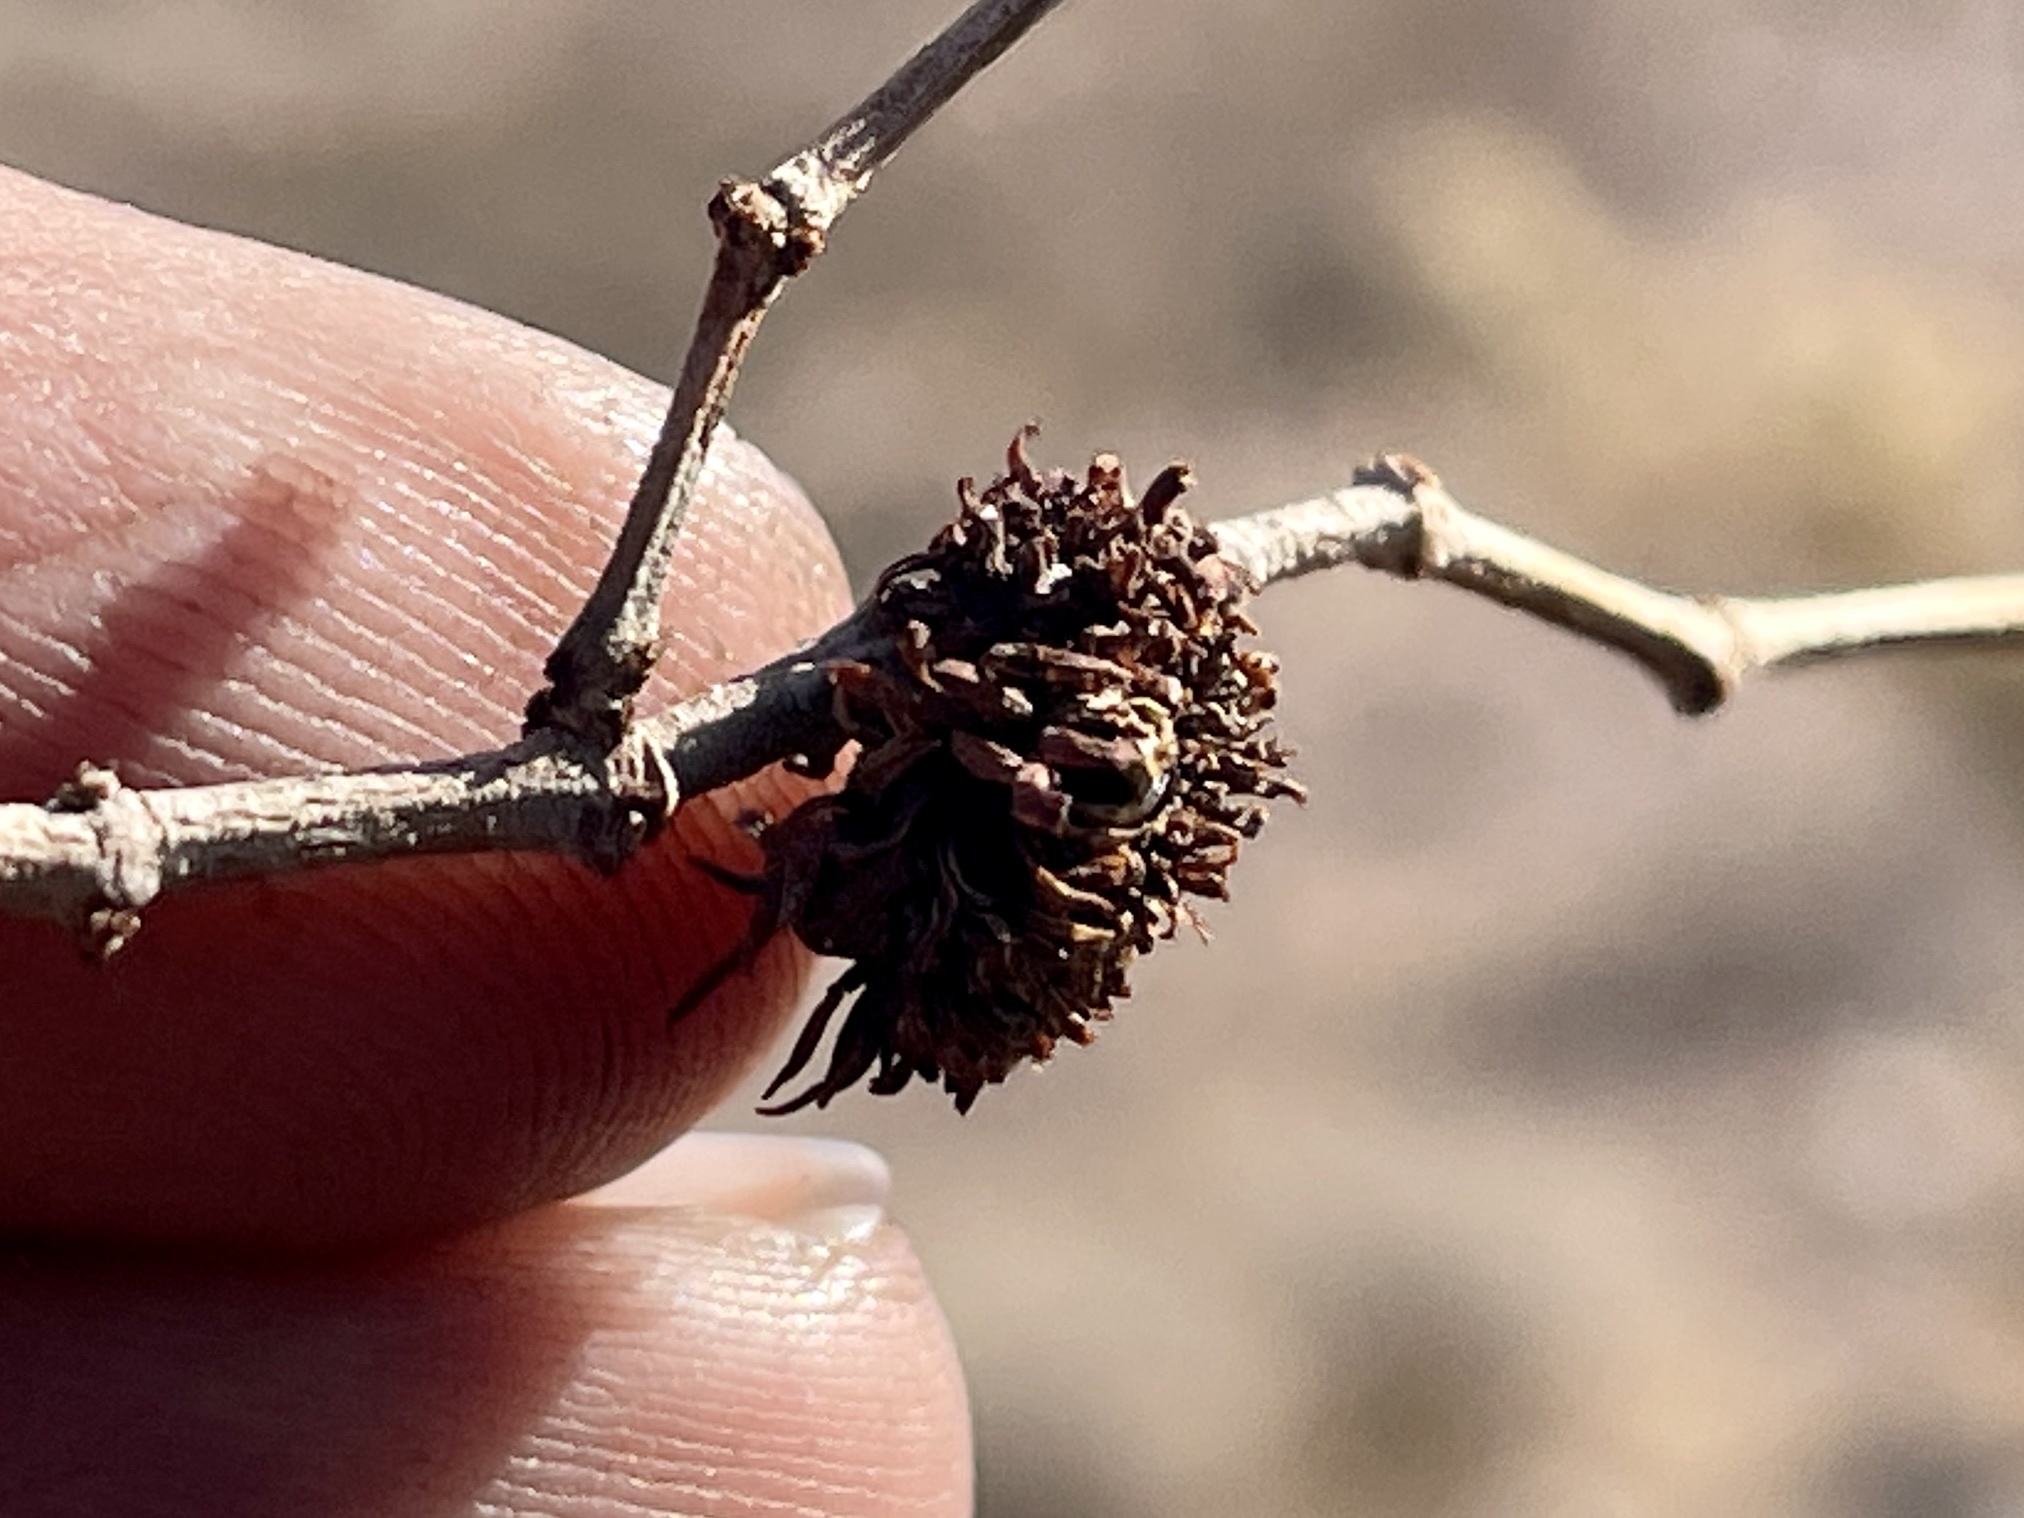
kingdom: Animalia
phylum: Arthropoda
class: Insecta
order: Diptera
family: Cecidomyiidae
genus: Asphondylia
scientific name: Asphondylia auripila
